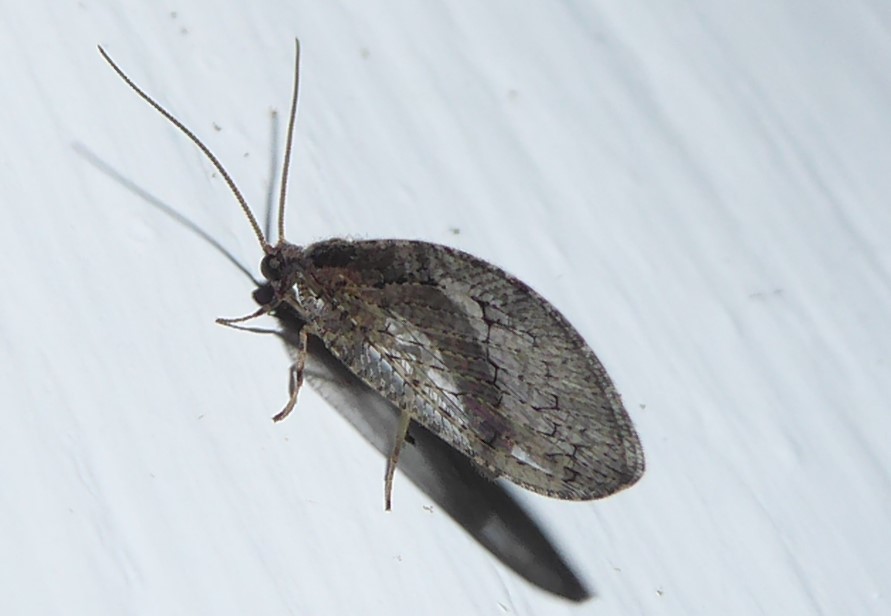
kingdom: Animalia
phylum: Arthropoda
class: Insecta
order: Neuroptera
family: Hemerobiidae
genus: Wesmaelius
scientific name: Wesmaelius subnebulosus
